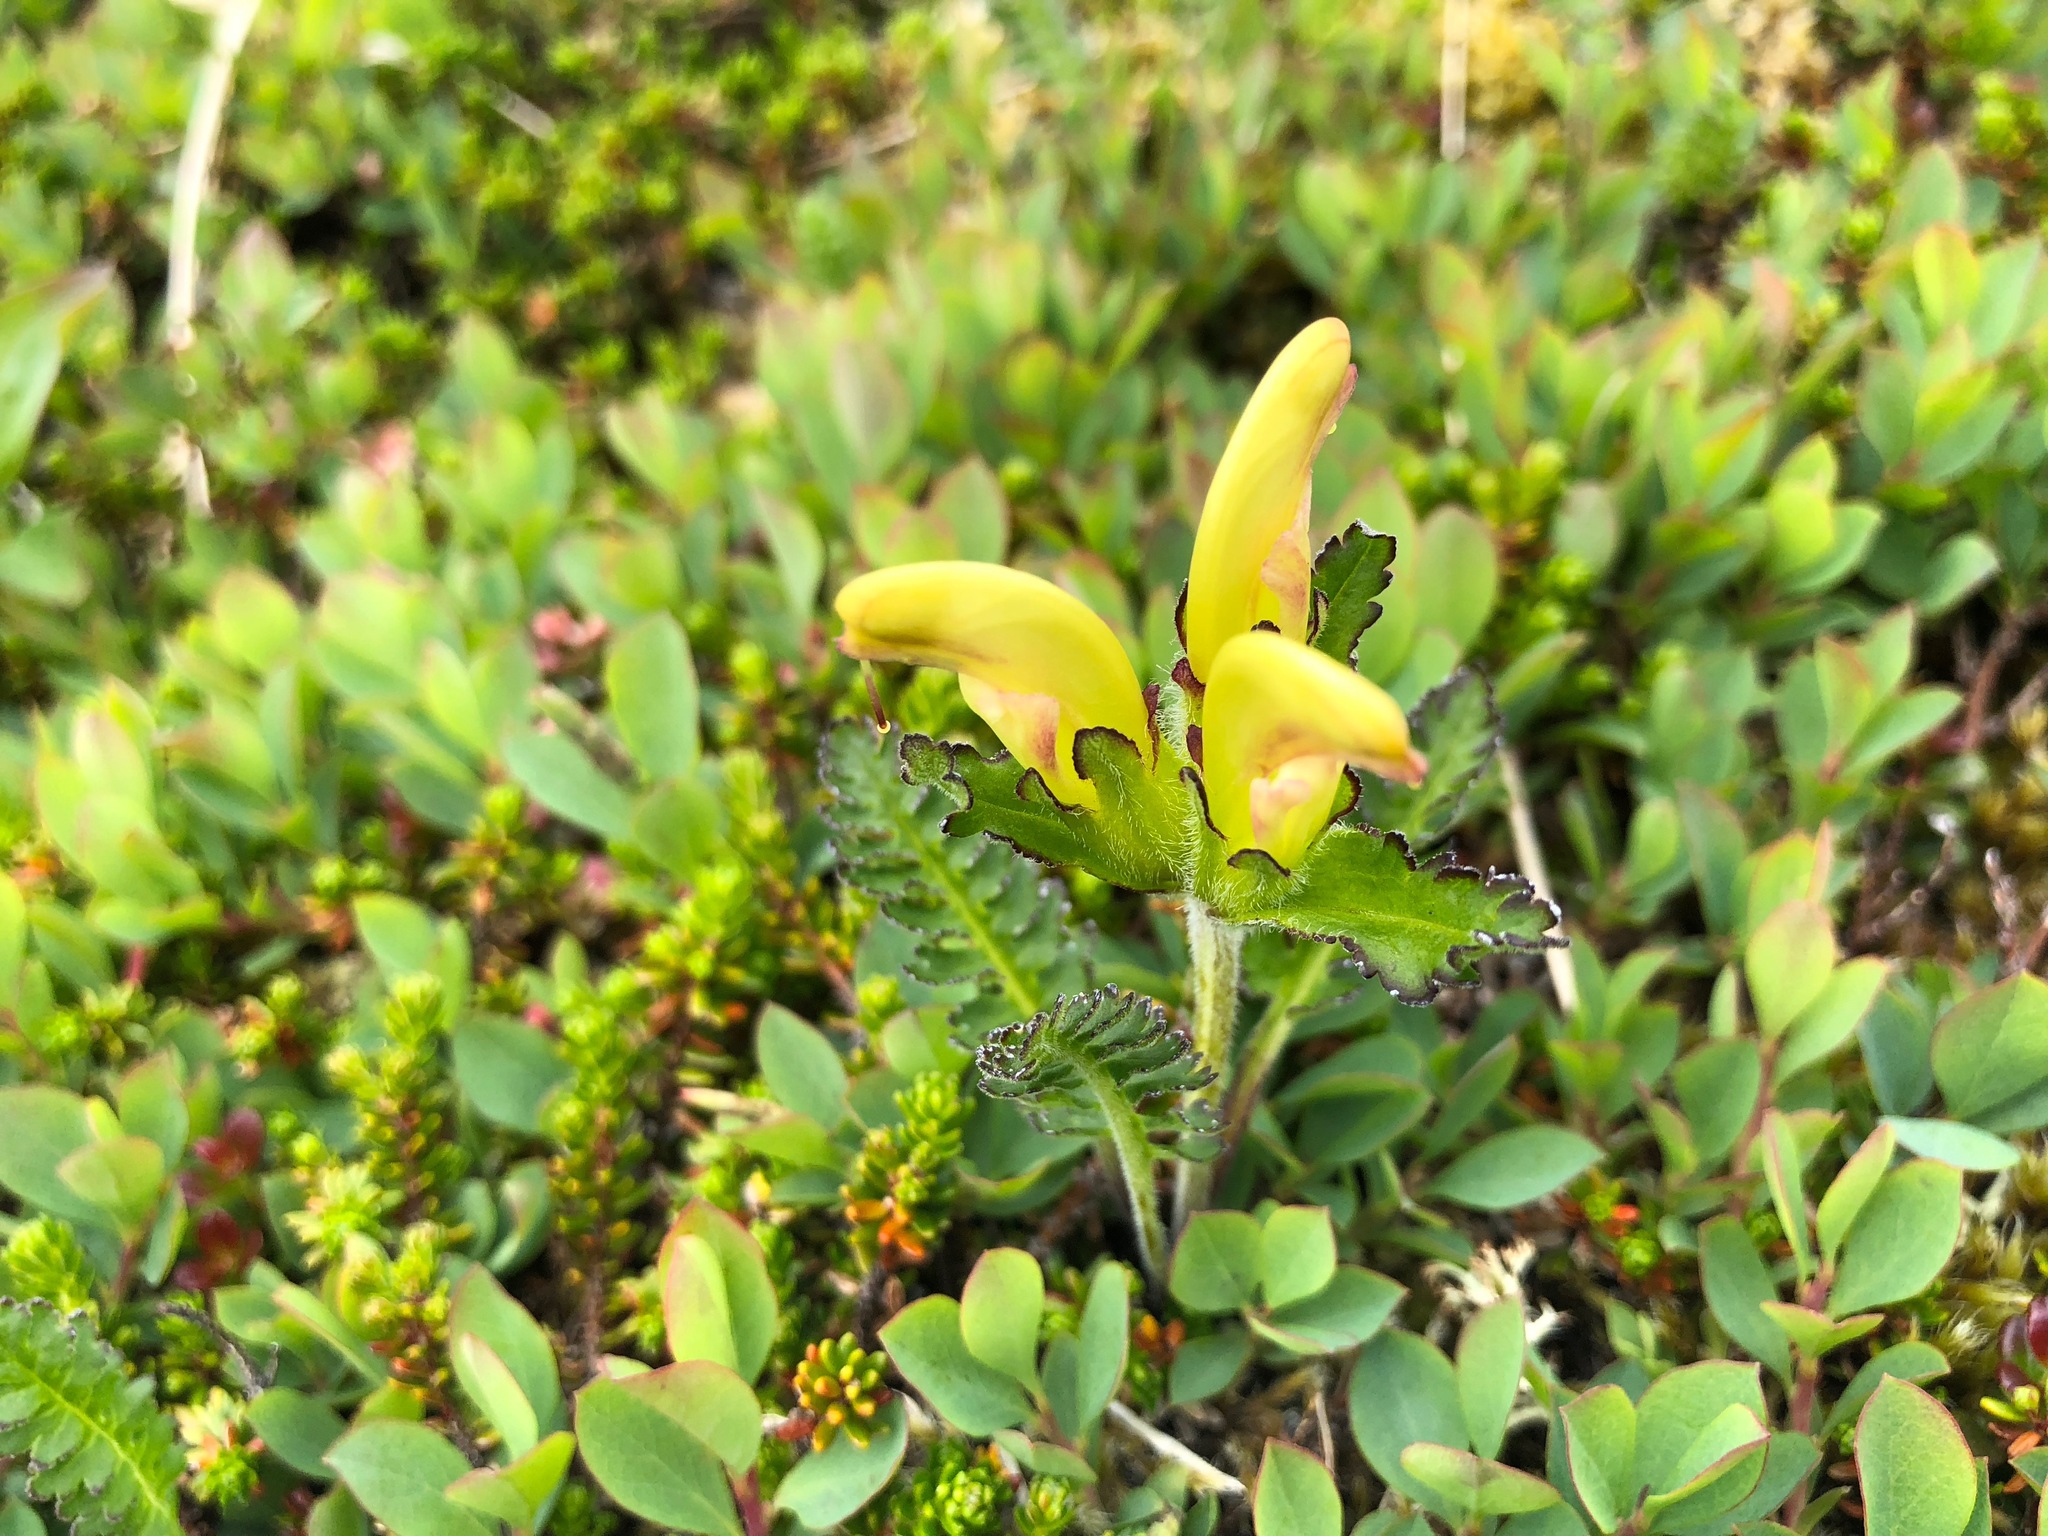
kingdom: Plantae
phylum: Tracheophyta
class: Magnoliopsida
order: Lamiales
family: Orobanchaceae
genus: Pedicularis
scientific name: Pedicularis capitata
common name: Capitate lousewort
